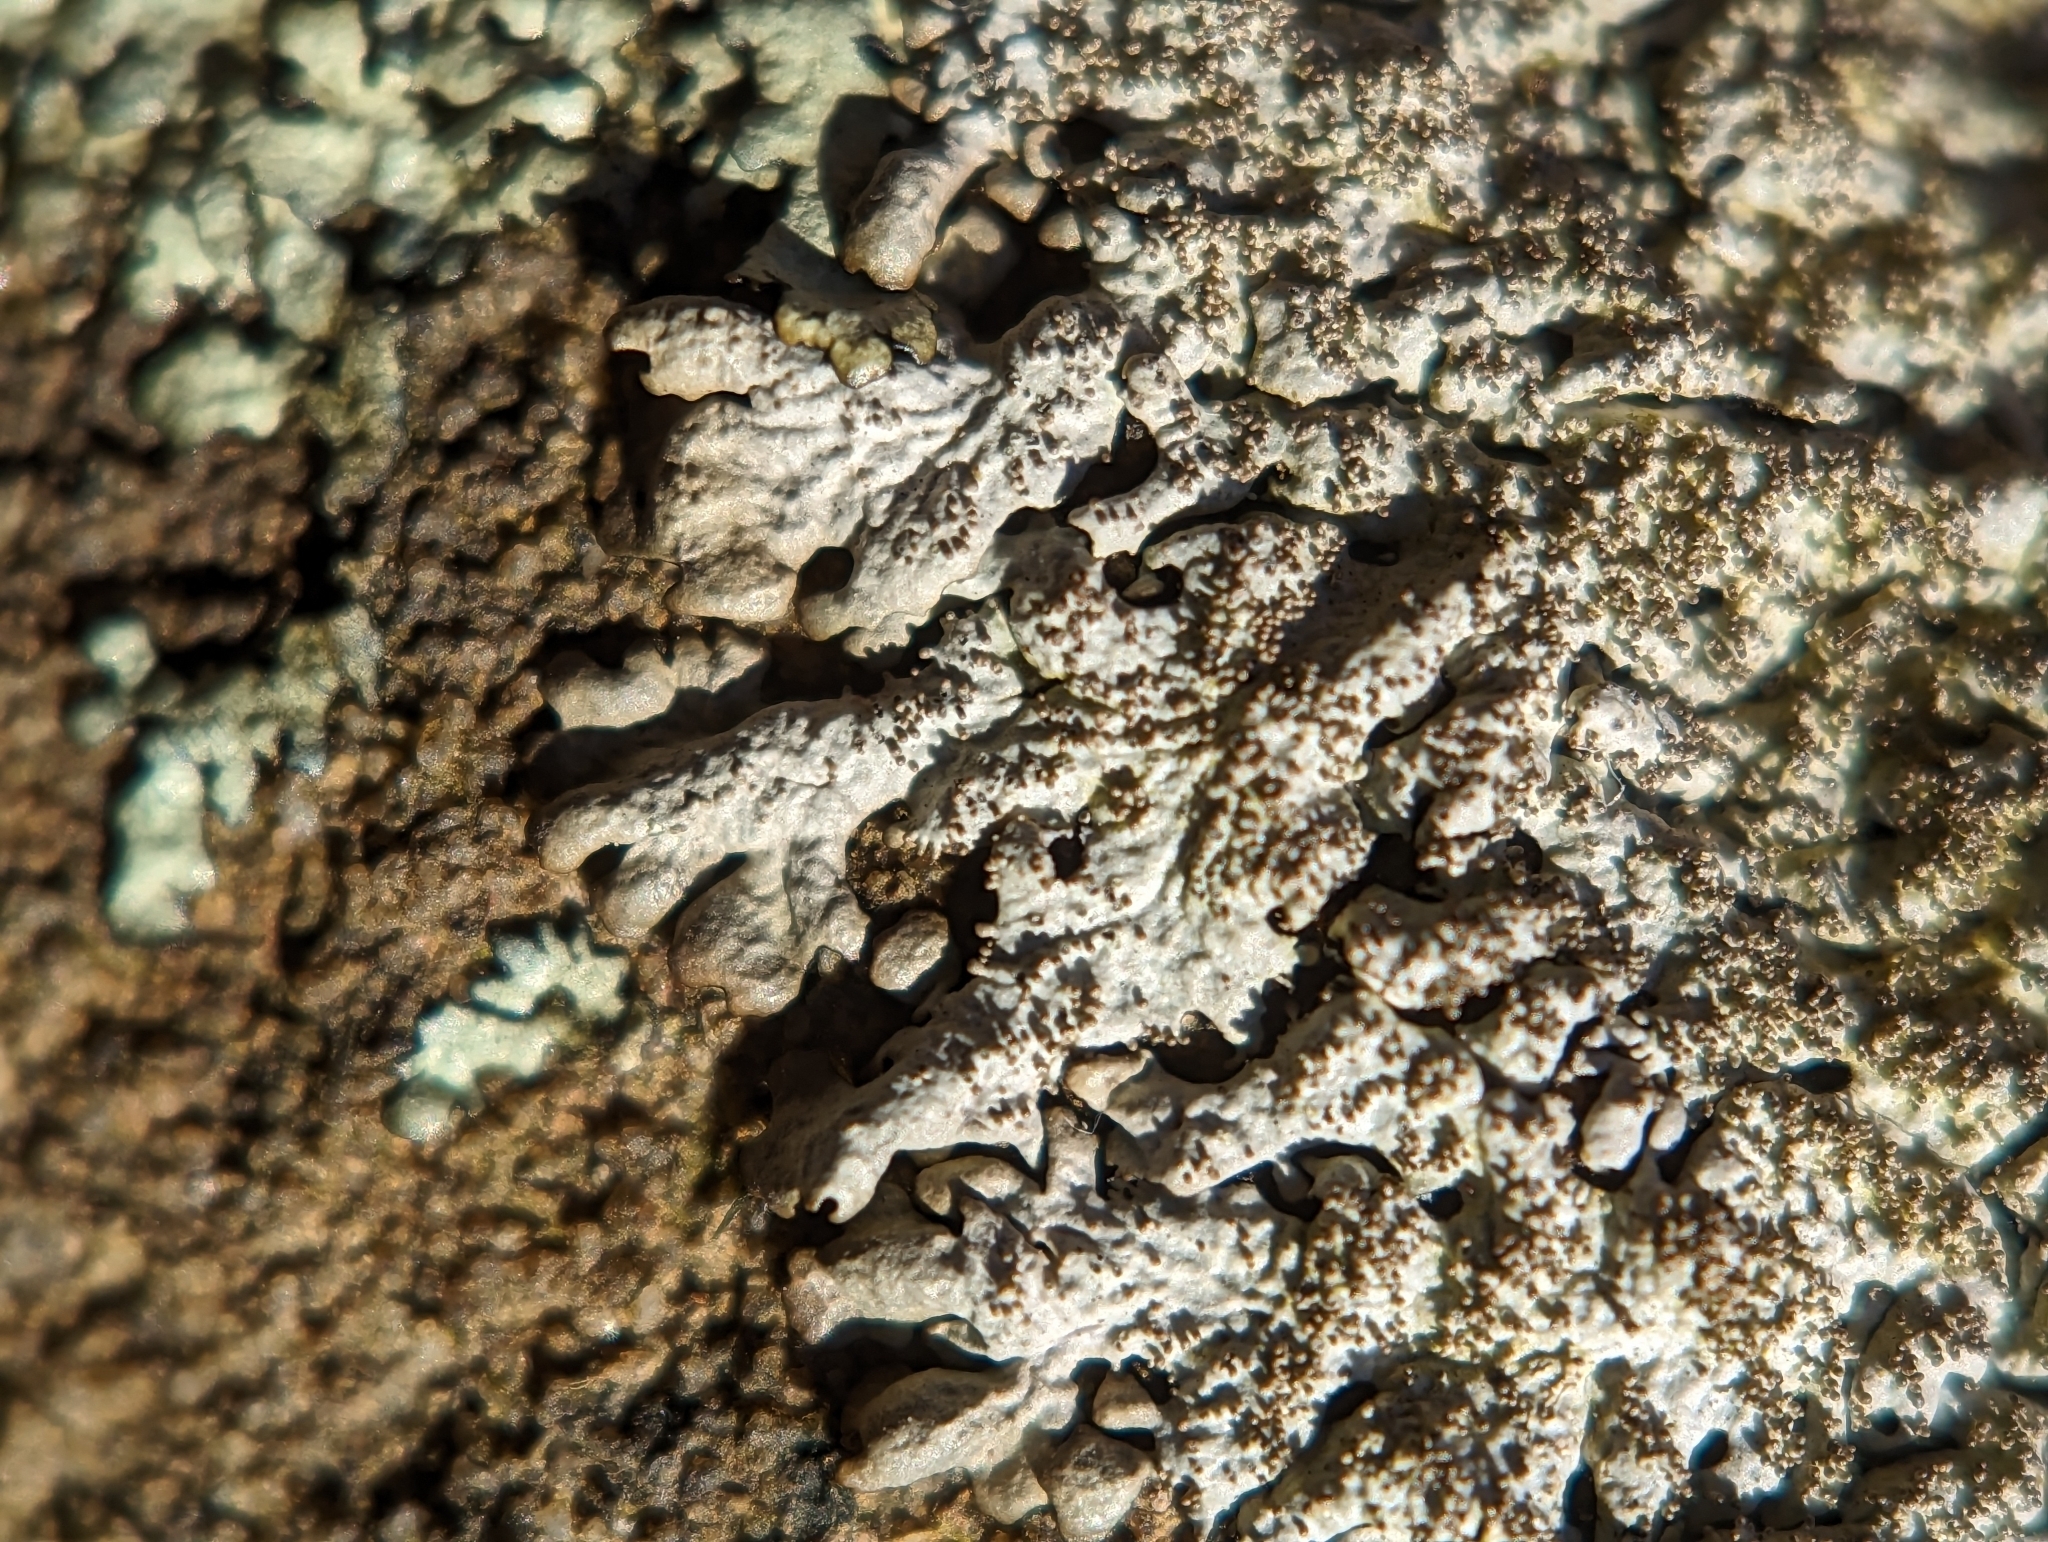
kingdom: Fungi
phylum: Ascomycota
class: Lecanoromycetes
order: Lecanorales
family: Parmeliaceae
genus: Myelochroa
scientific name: Myelochroa obsessa
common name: Rock axil-bristle lichen
